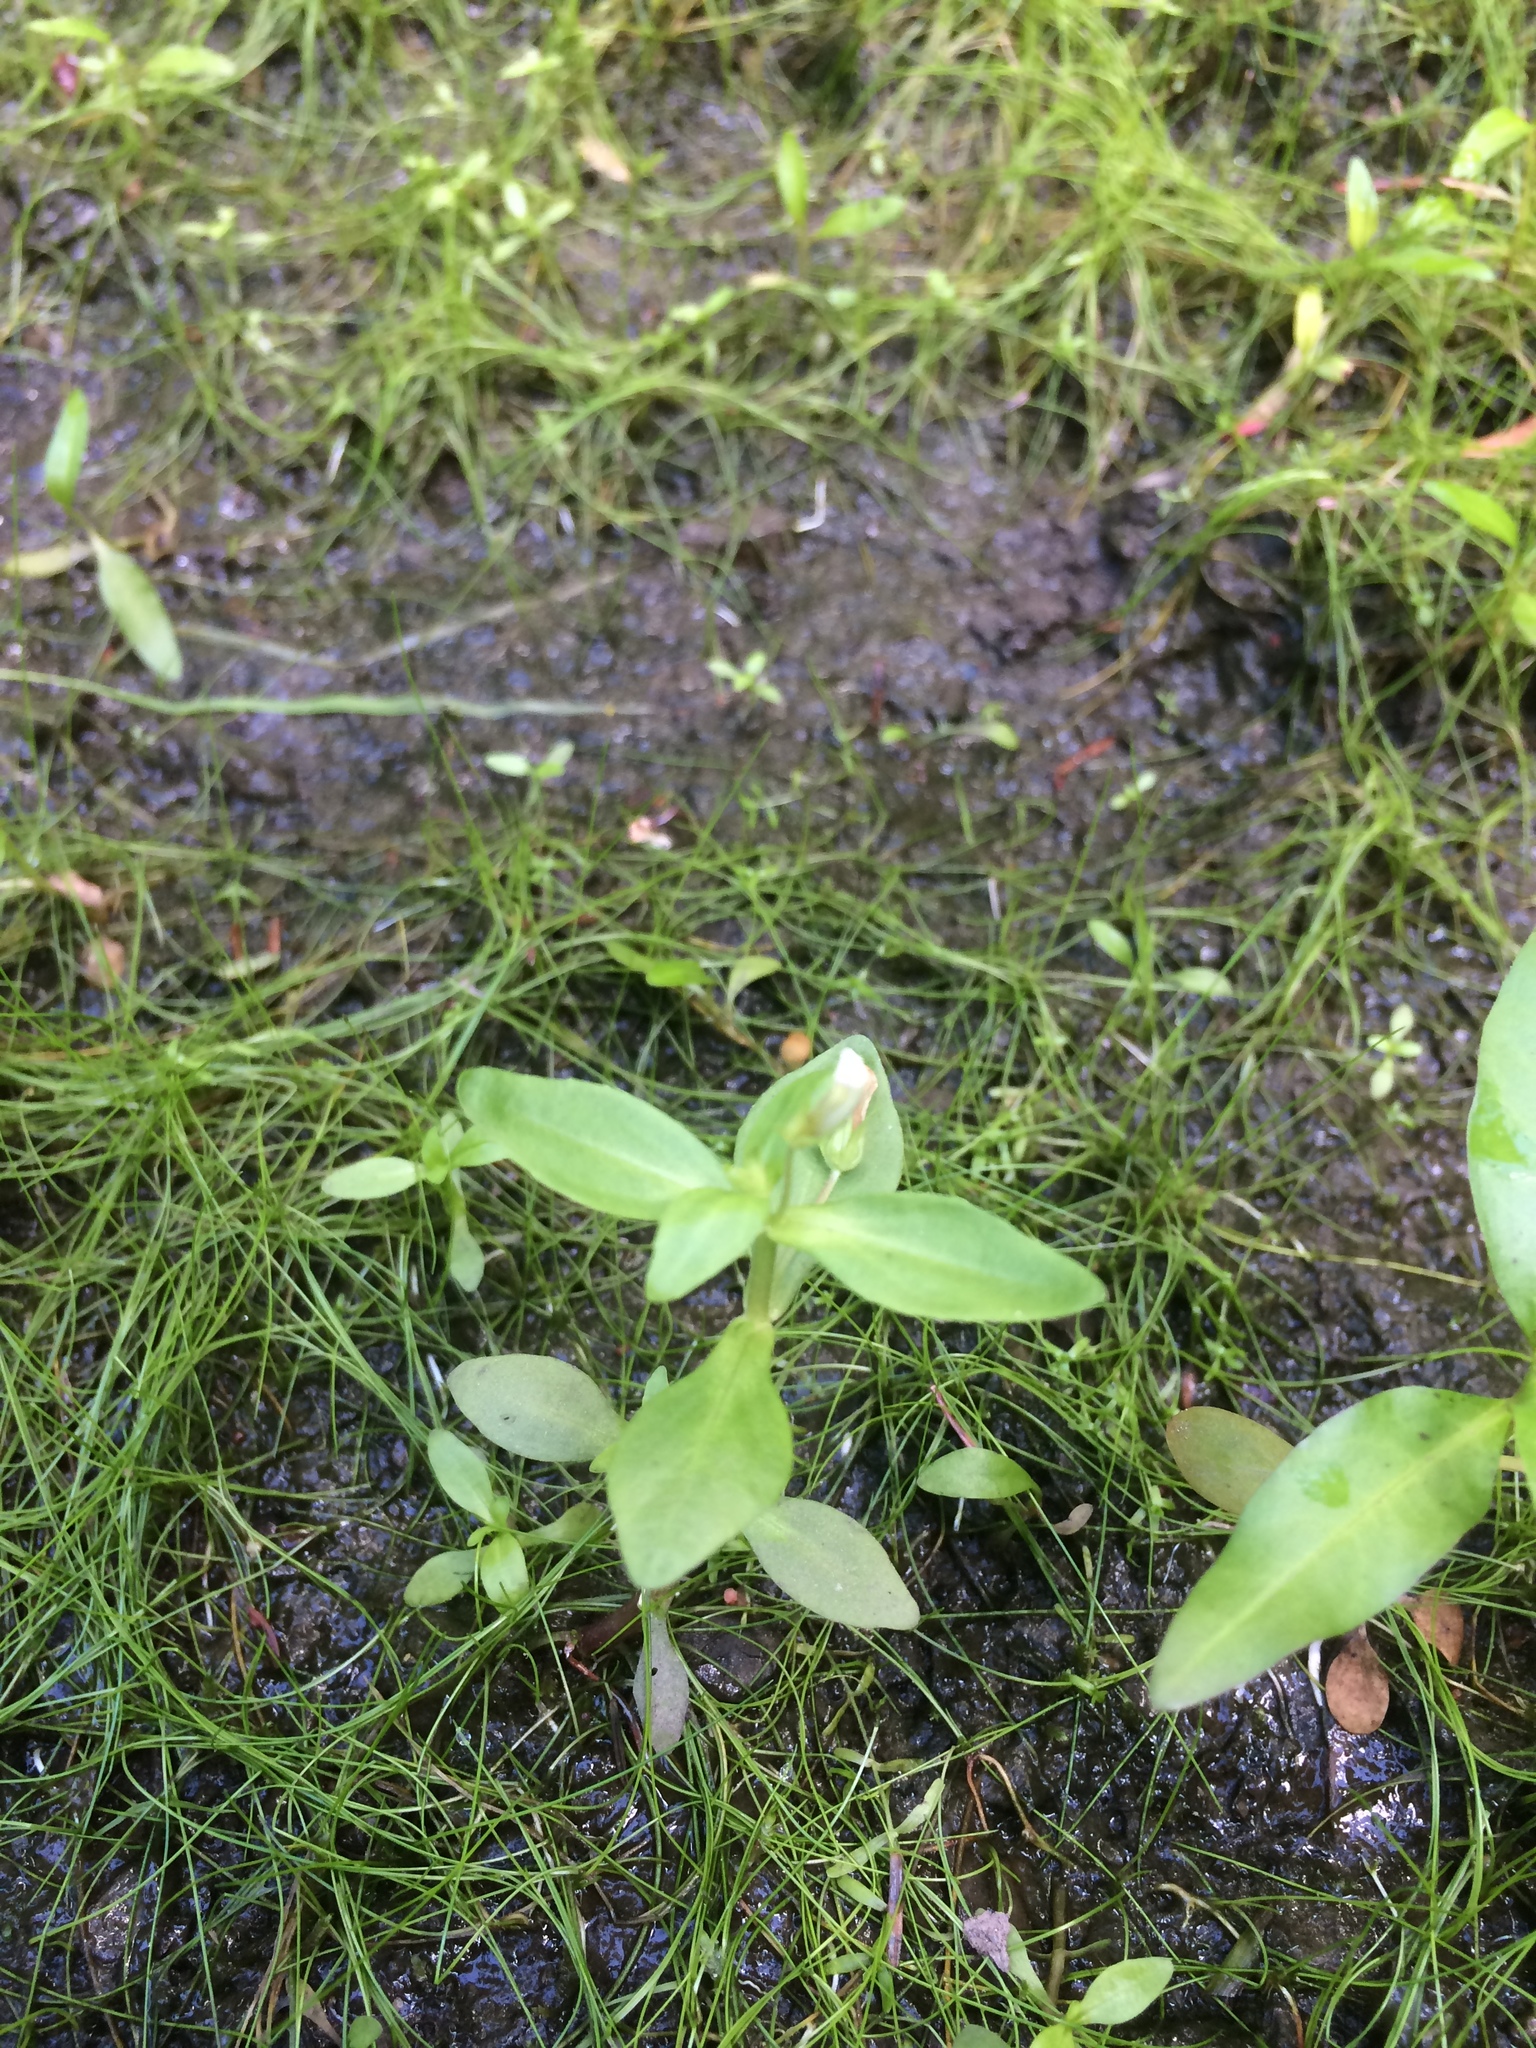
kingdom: Plantae
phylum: Tracheophyta
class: Magnoliopsida
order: Lamiales
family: Plantaginaceae
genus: Gratiola
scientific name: Gratiola neglecta
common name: American hedge-hyssop
